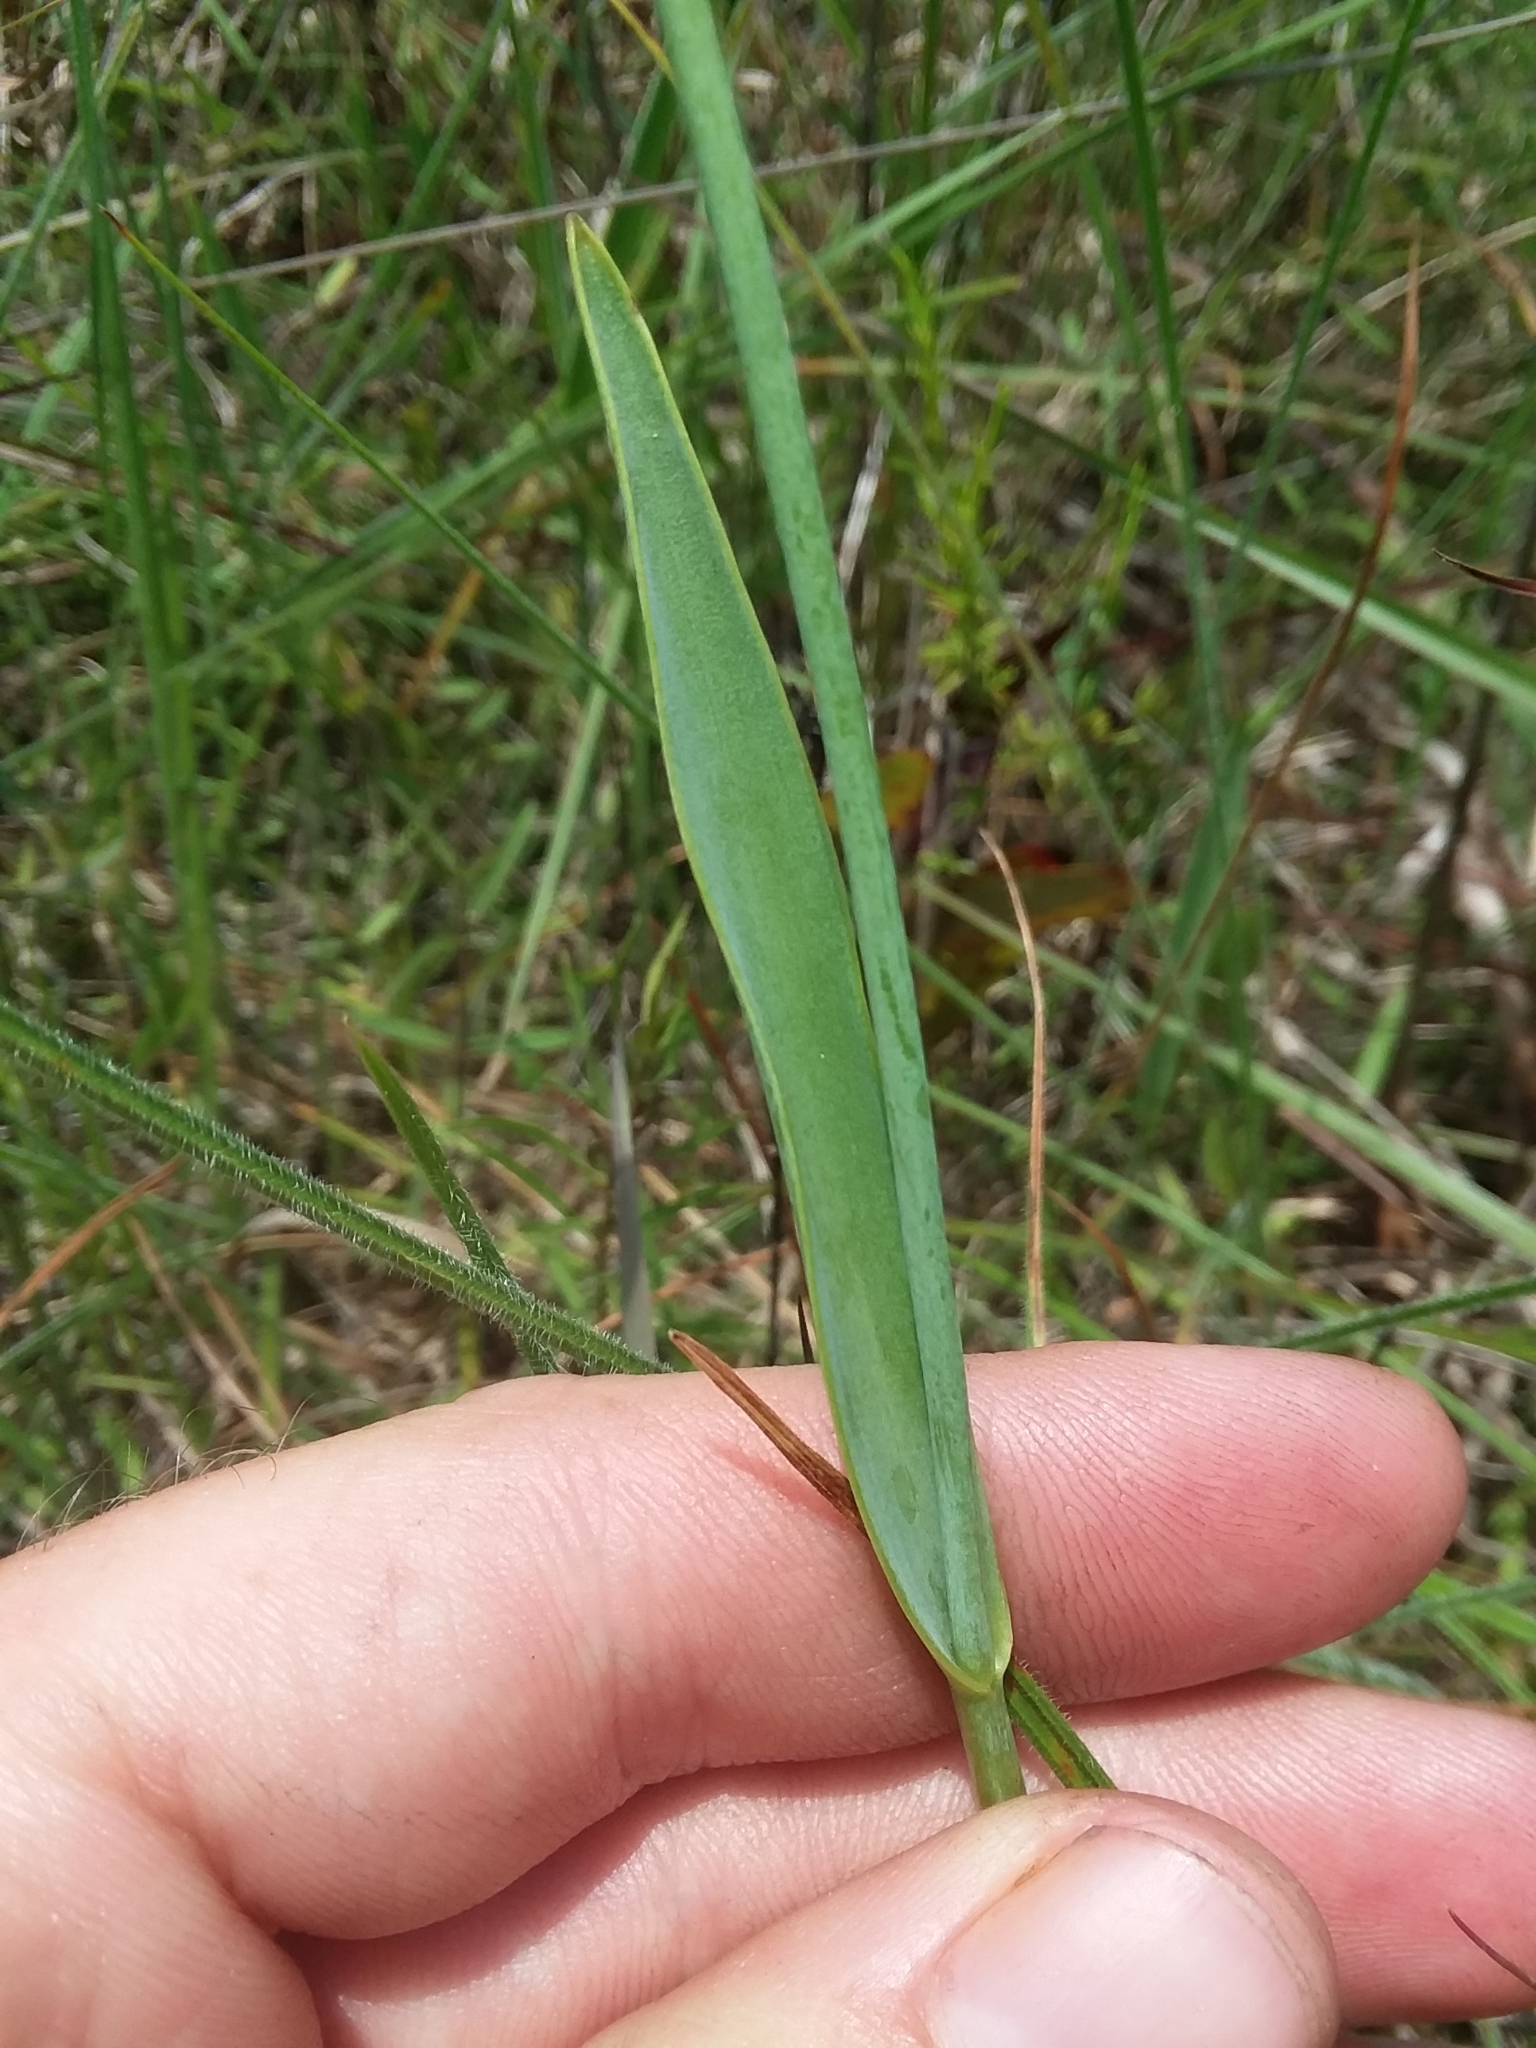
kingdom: Plantae
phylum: Tracheophyta
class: Liliopsida
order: Asparagales
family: Orchidaceae
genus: Cleistesiopsis
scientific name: Cleistesiopsis oricamporum
